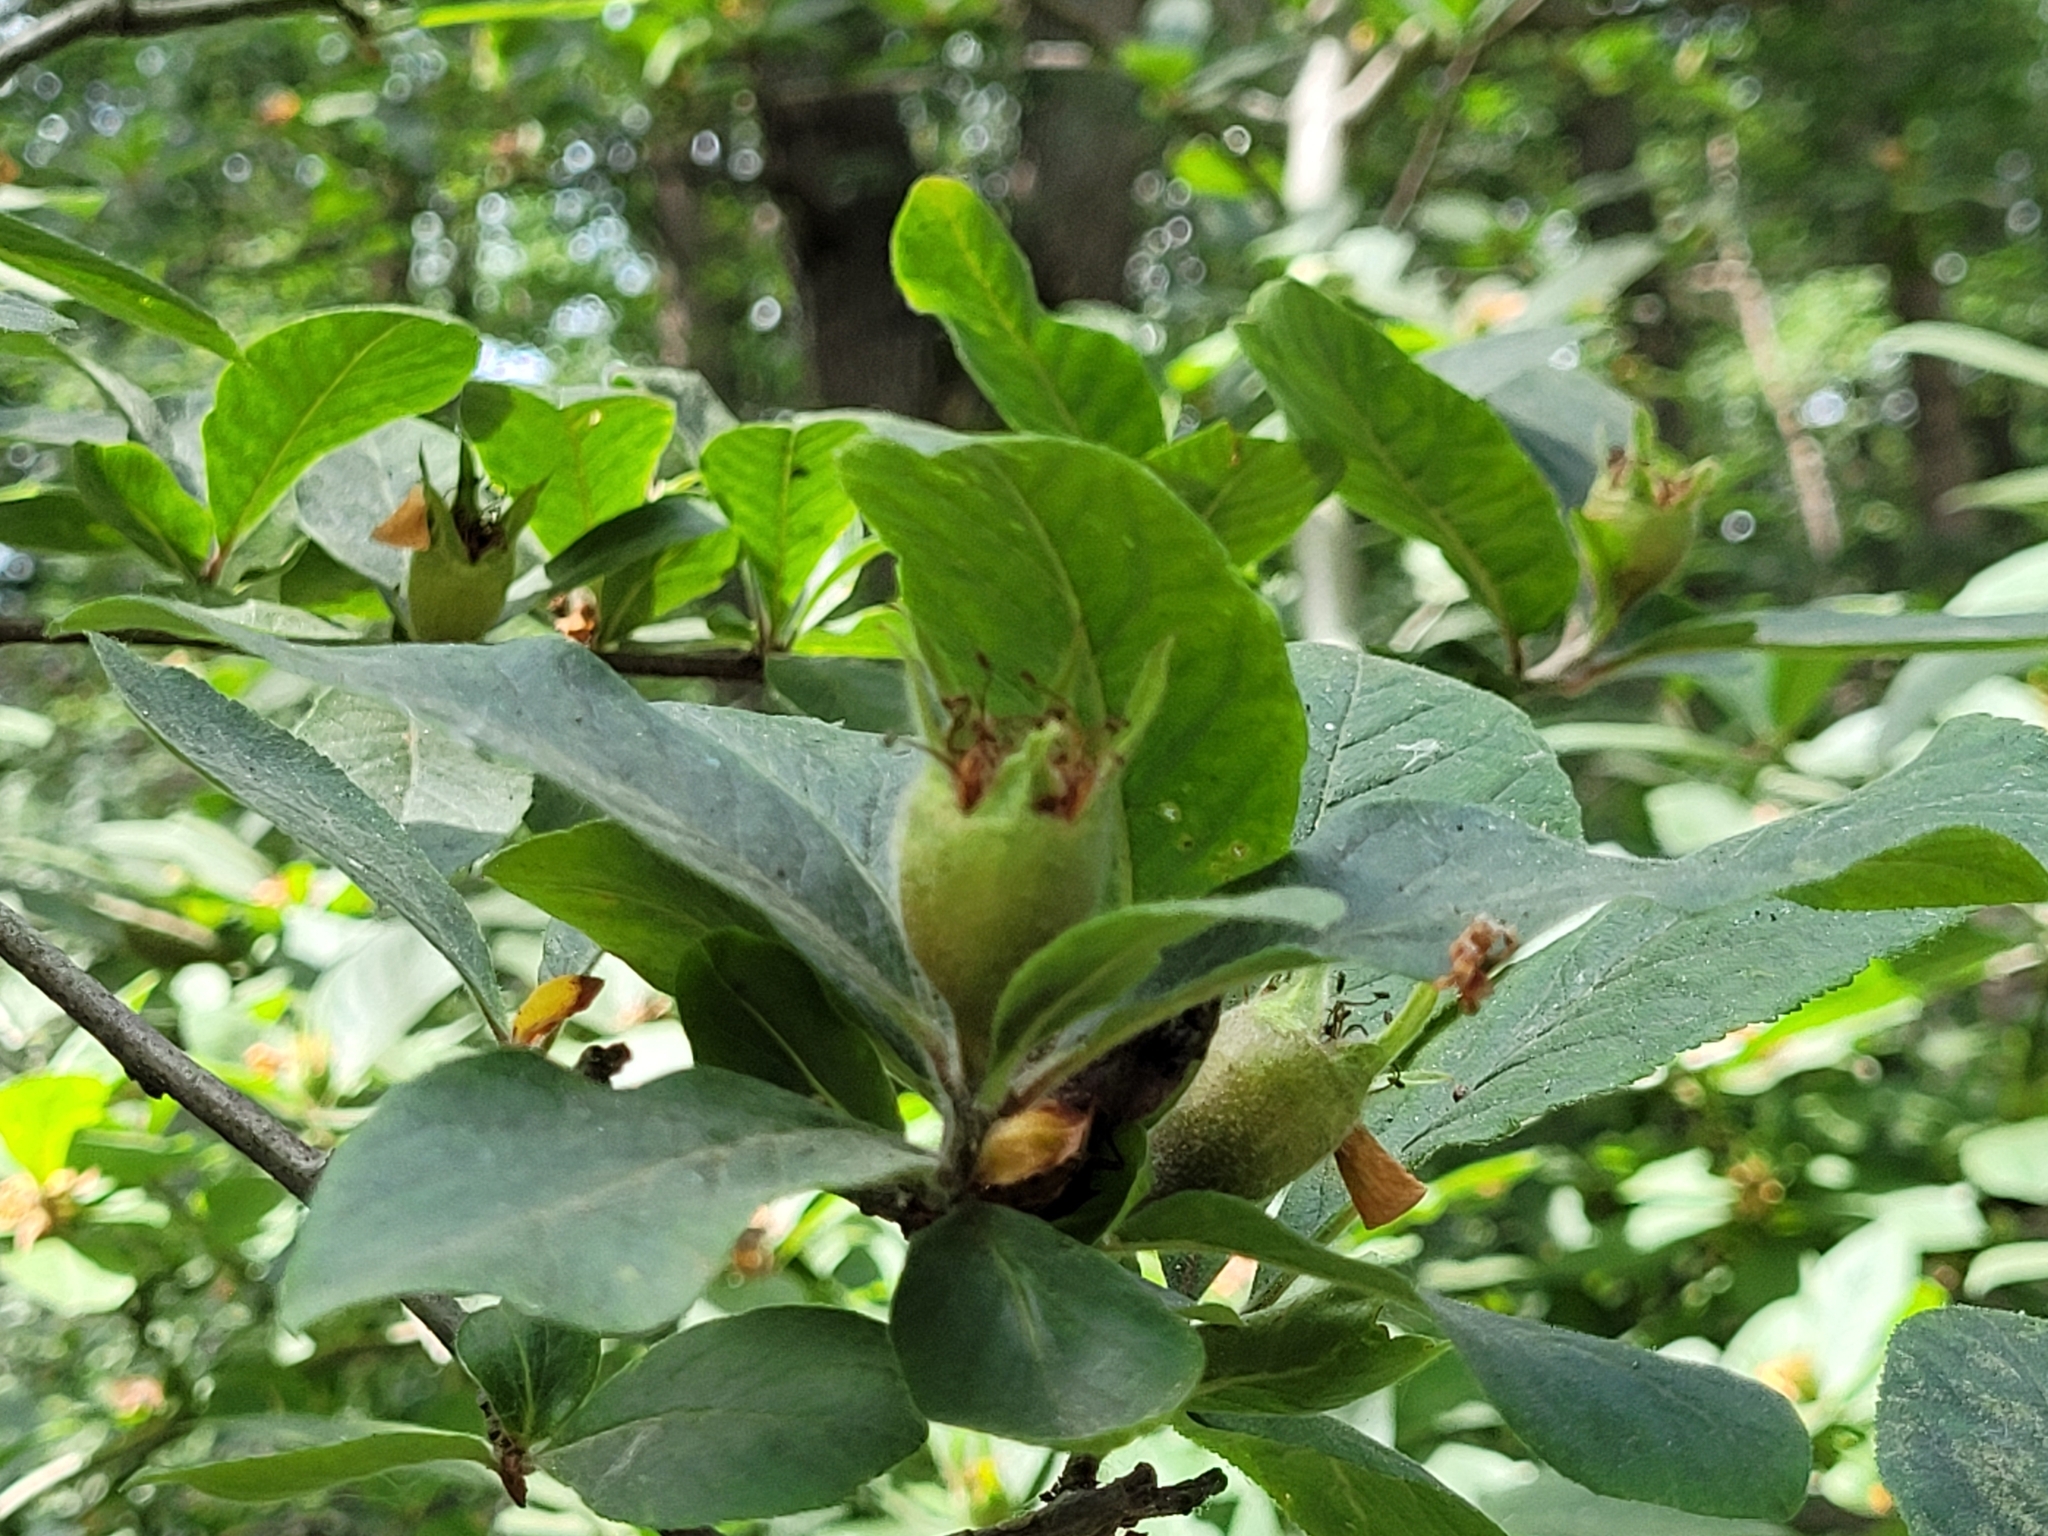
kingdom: Plantae
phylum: Tracheophyta
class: Magnoliopsida
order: Rosales
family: Rosaceae
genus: Mespilus
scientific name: Mespilus germanica
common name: Medlar
